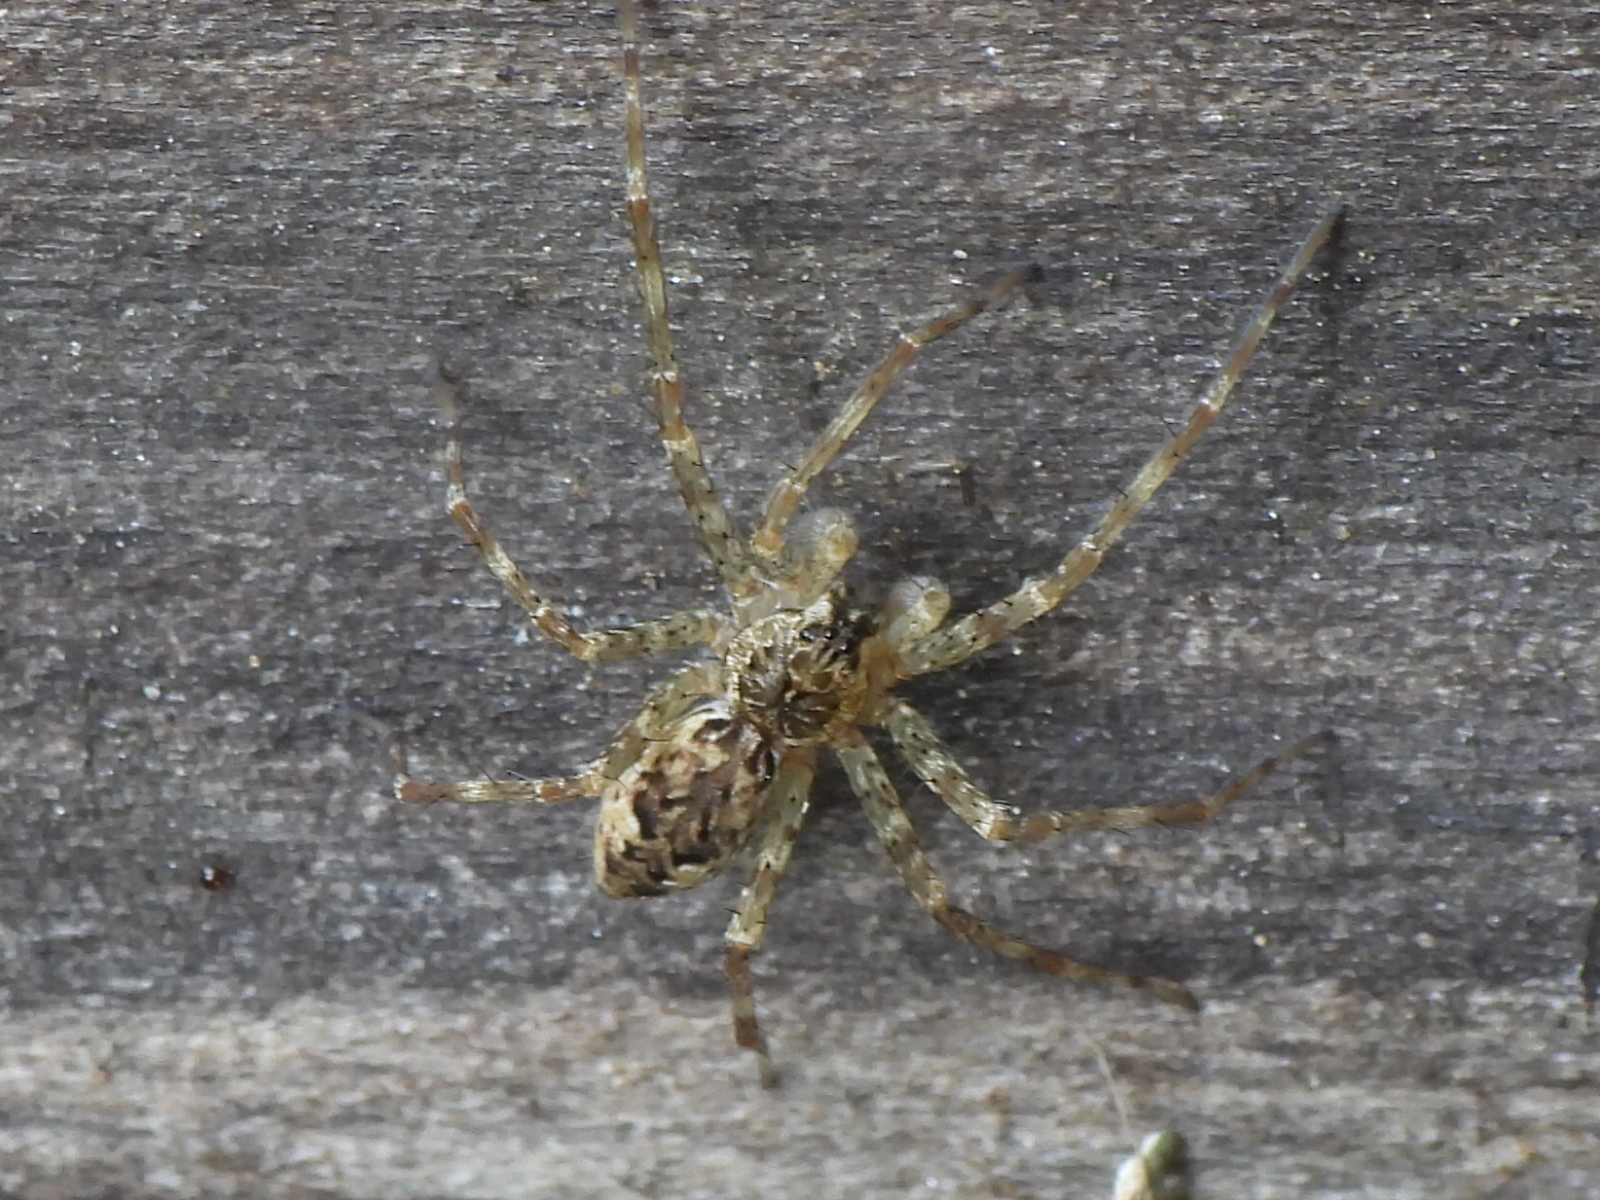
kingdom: Animalia
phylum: Arthropoda
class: Arachnida
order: Araneae
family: Pisauridae
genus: Dolomedes
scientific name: Dolomedes tenebrosus
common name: Dark fishing spider
